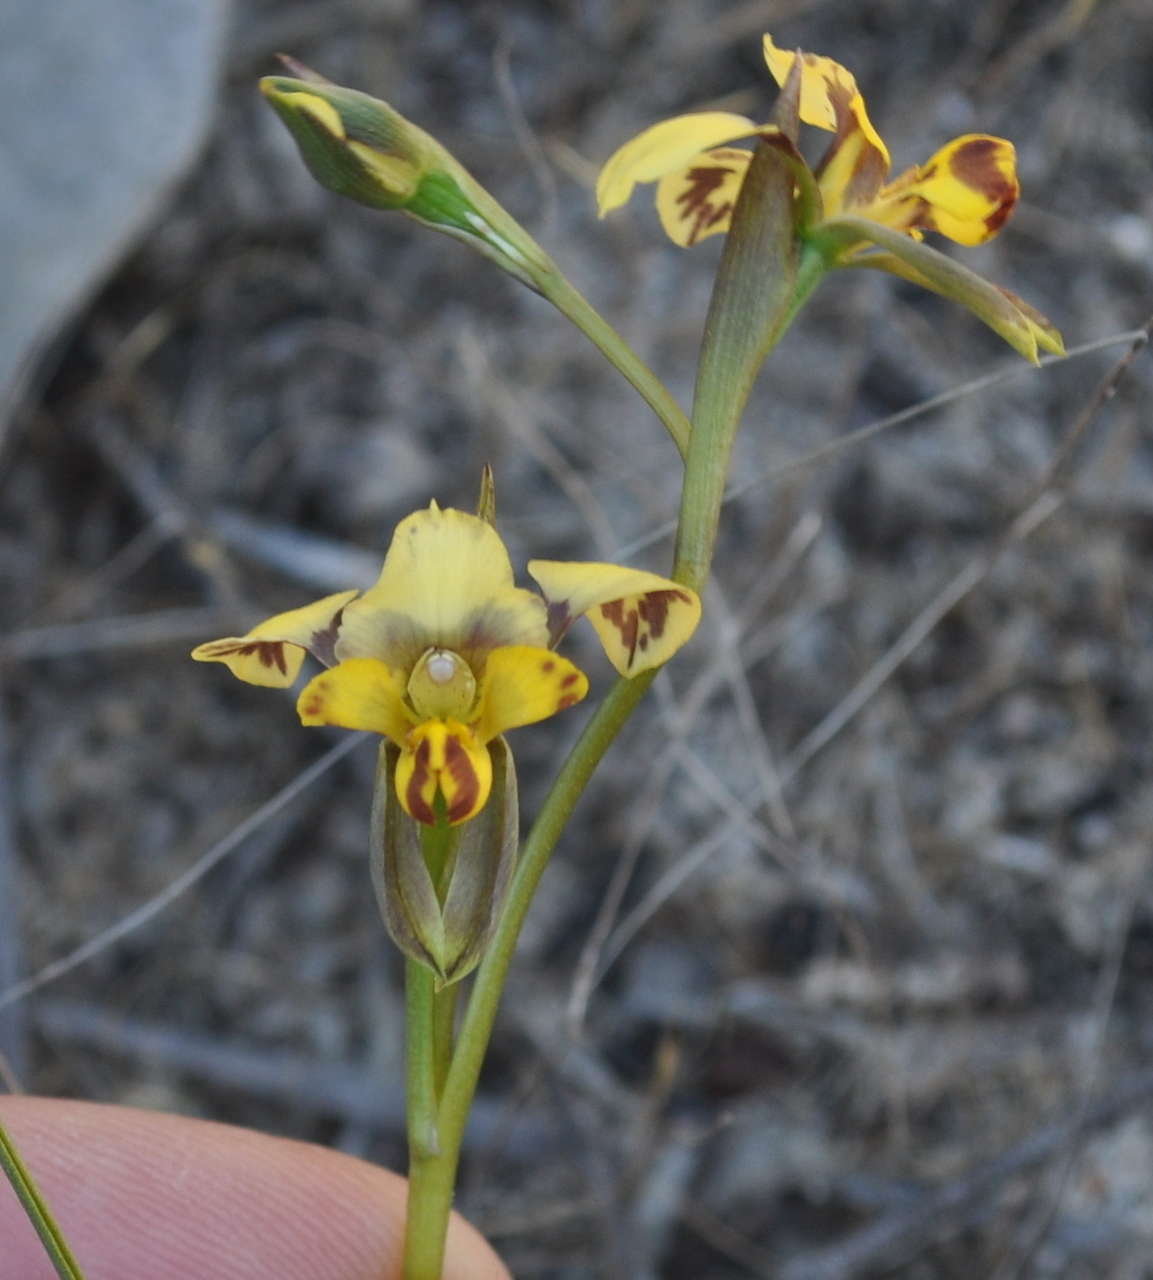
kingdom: Plantae
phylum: Tracheophyta
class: Liliopsida
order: Asparagales
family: Orchidaceae
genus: Diuris
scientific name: Diuris pardina
